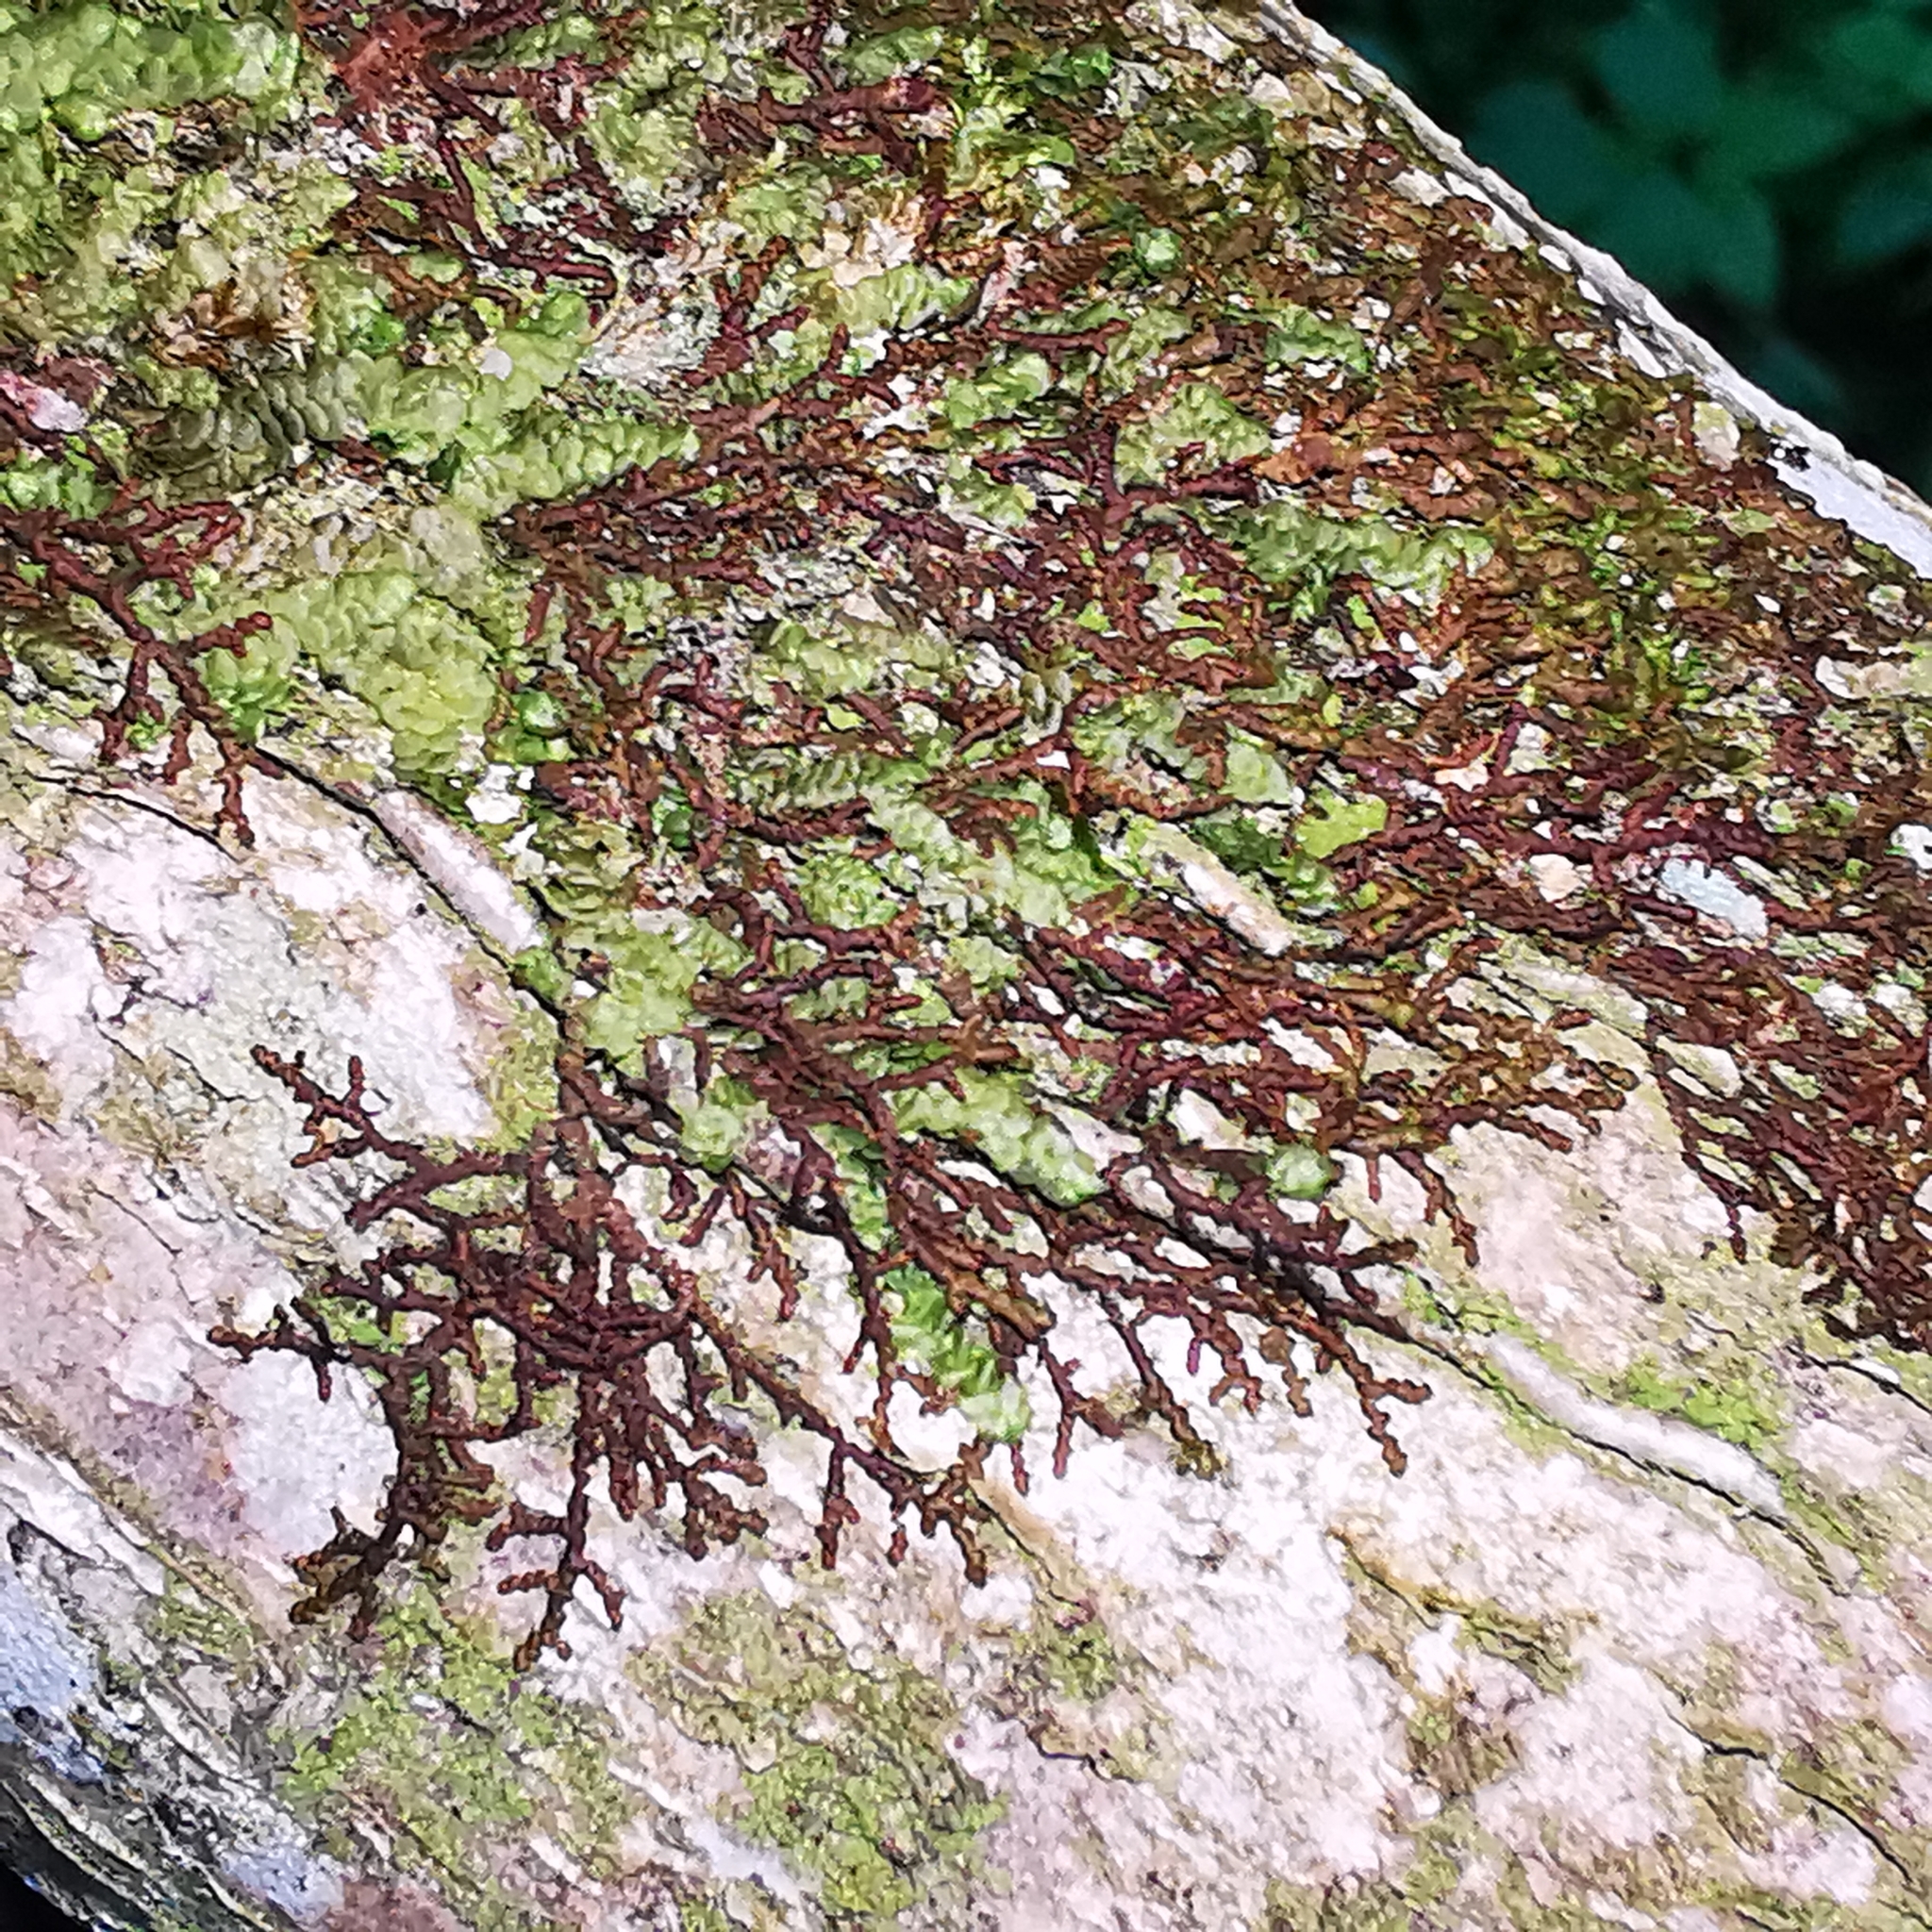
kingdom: Plantae
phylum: Marchantiophyta
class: Jungermanniopsida
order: Porellales
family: Frullaniaceae
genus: Frullania
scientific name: Frullania dilatata
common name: Dilated scalewort
